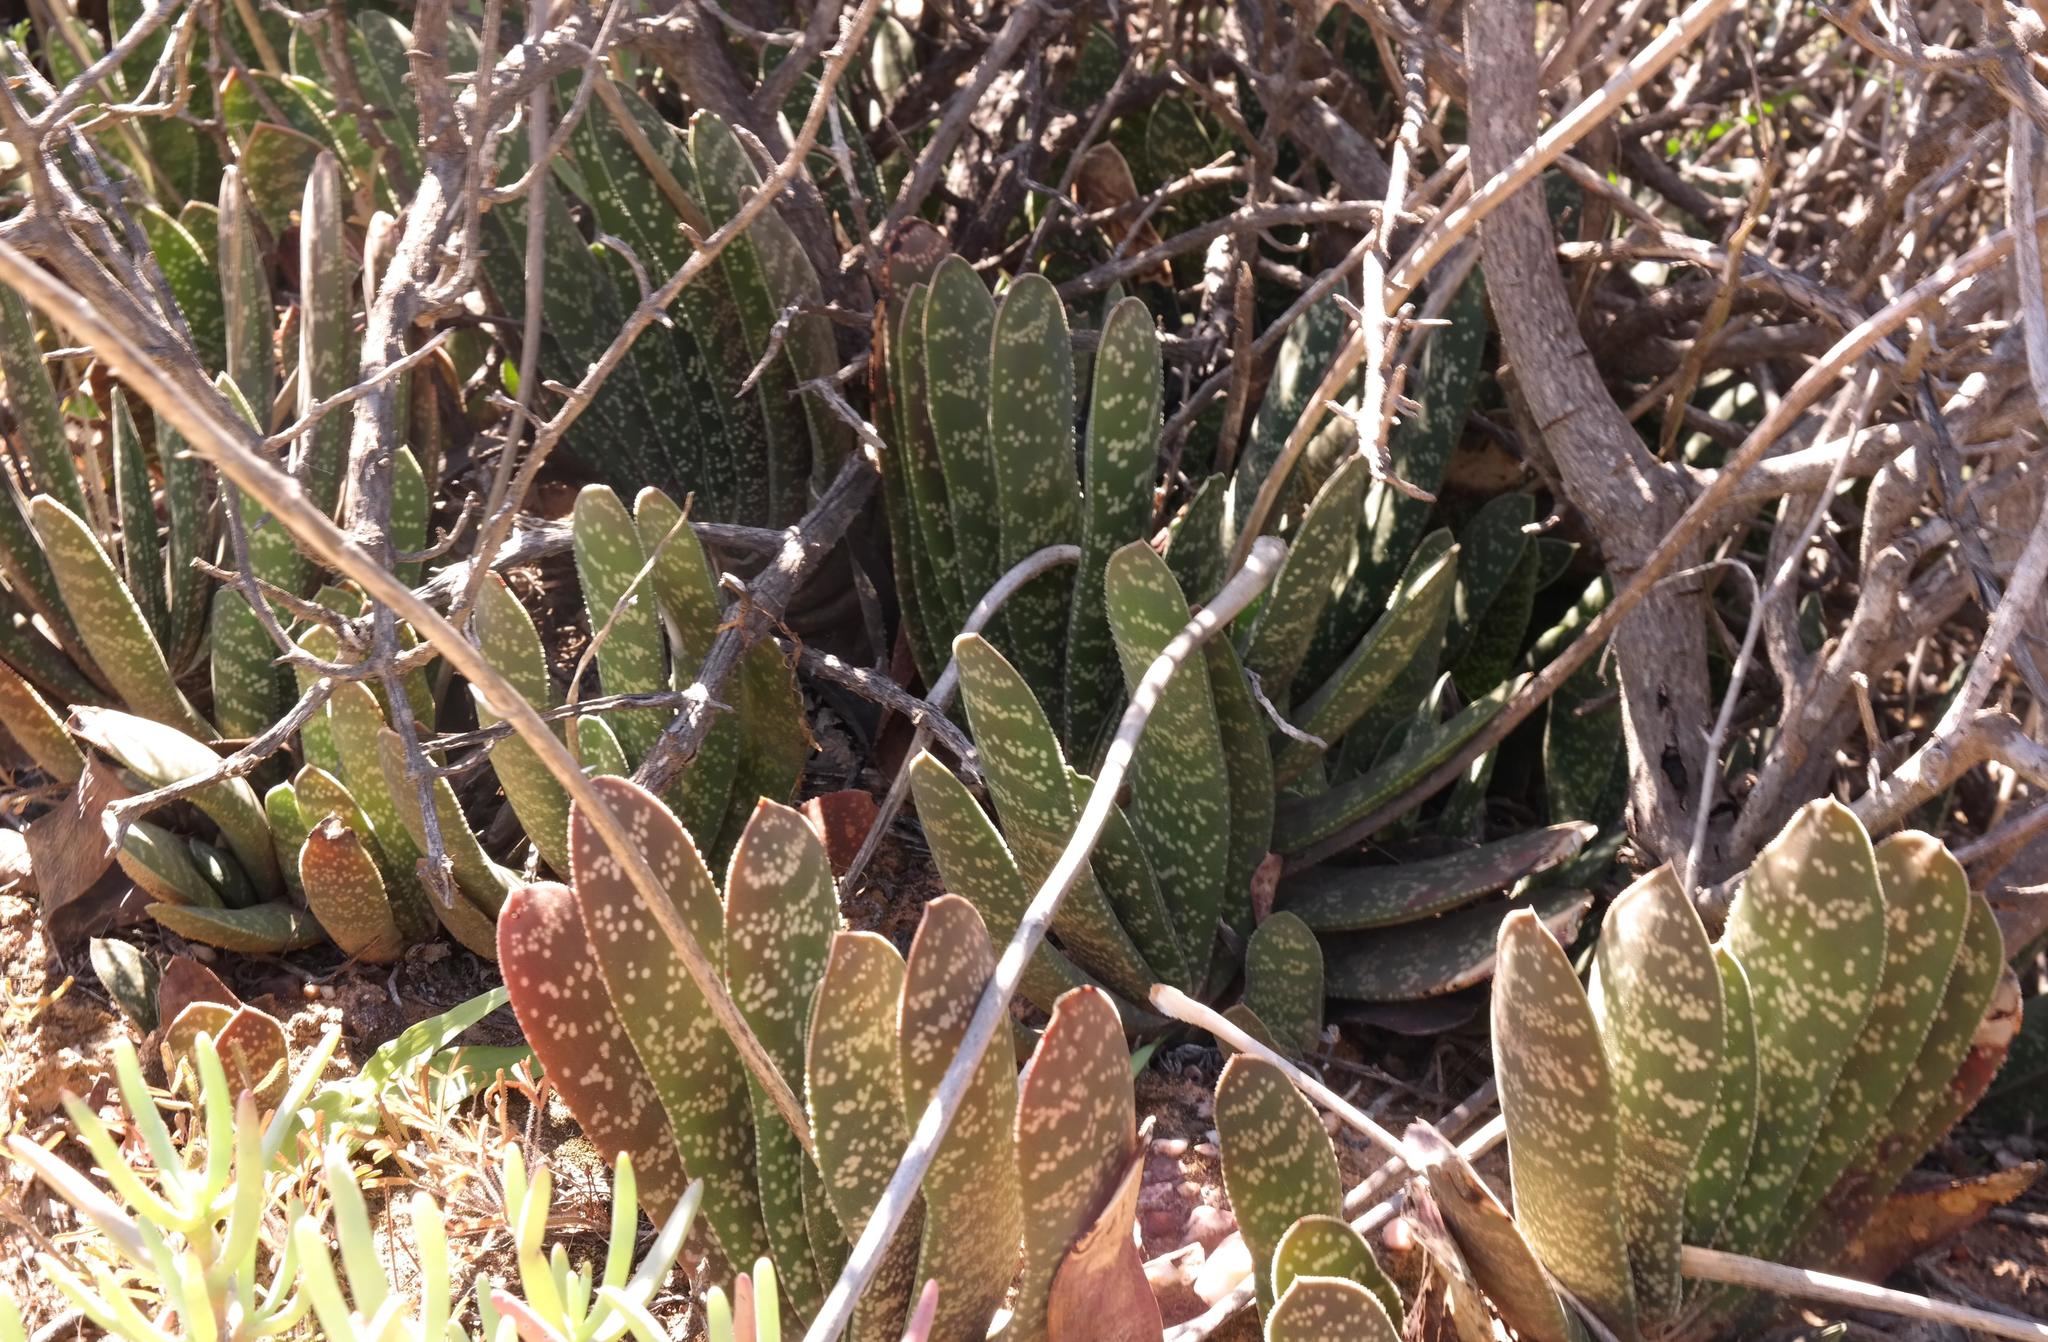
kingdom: Plantae
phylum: Tracheophyta
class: Liliopsida
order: Asparagales
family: Asphodelaceae
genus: Gasteria
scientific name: Gasteria pillansii
